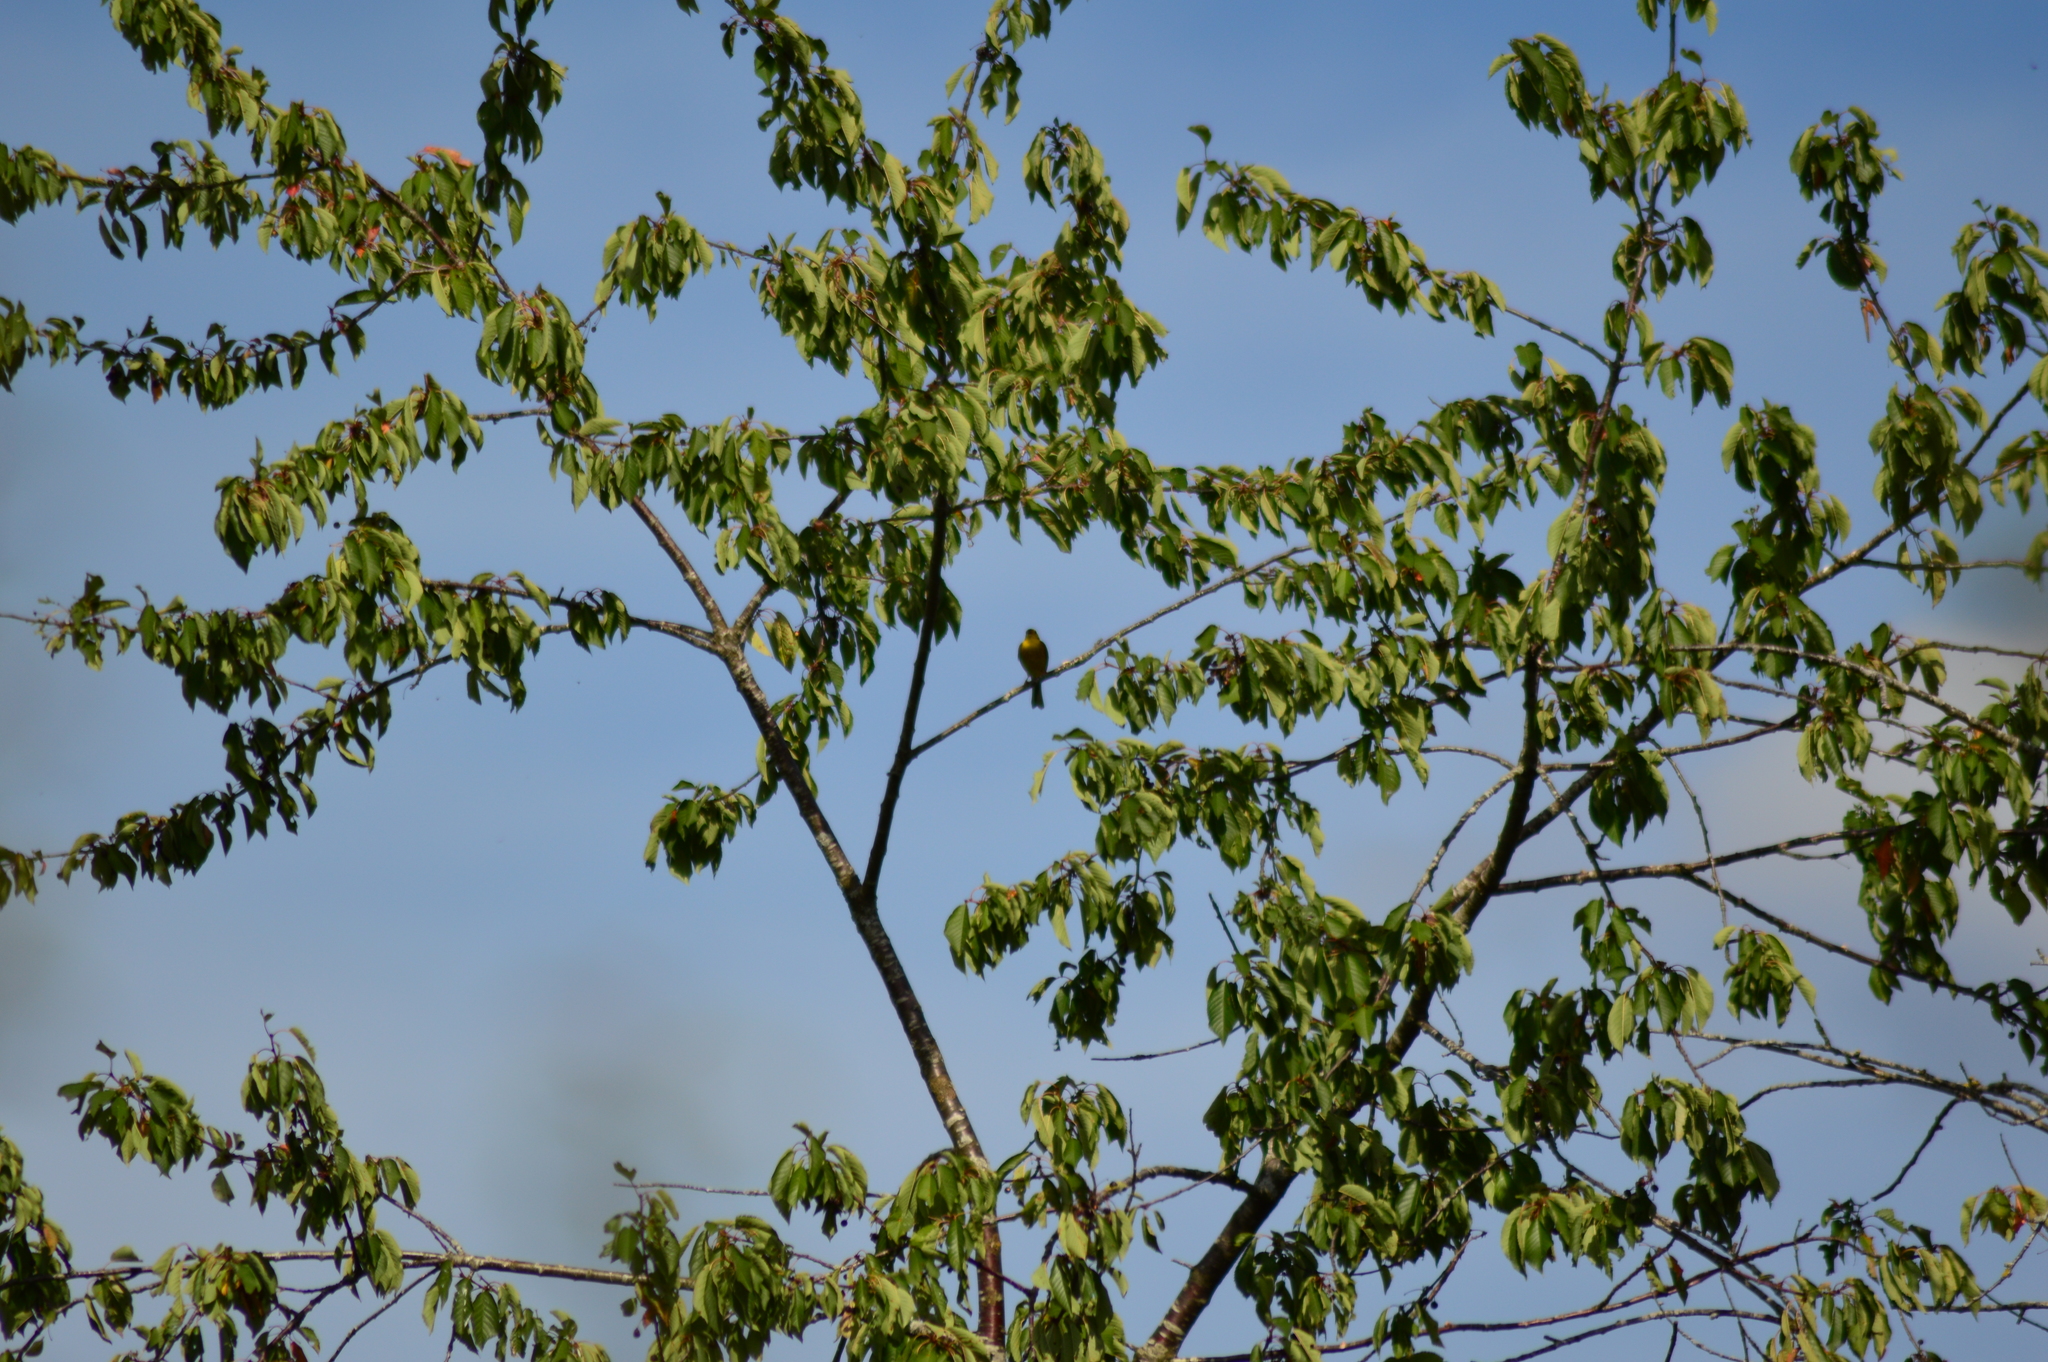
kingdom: Animalia
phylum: Chordata
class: Aves
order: Passeriformes
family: Emberizidae
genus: Emberiza
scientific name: Emberiza citrinella
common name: Yellowhammer
